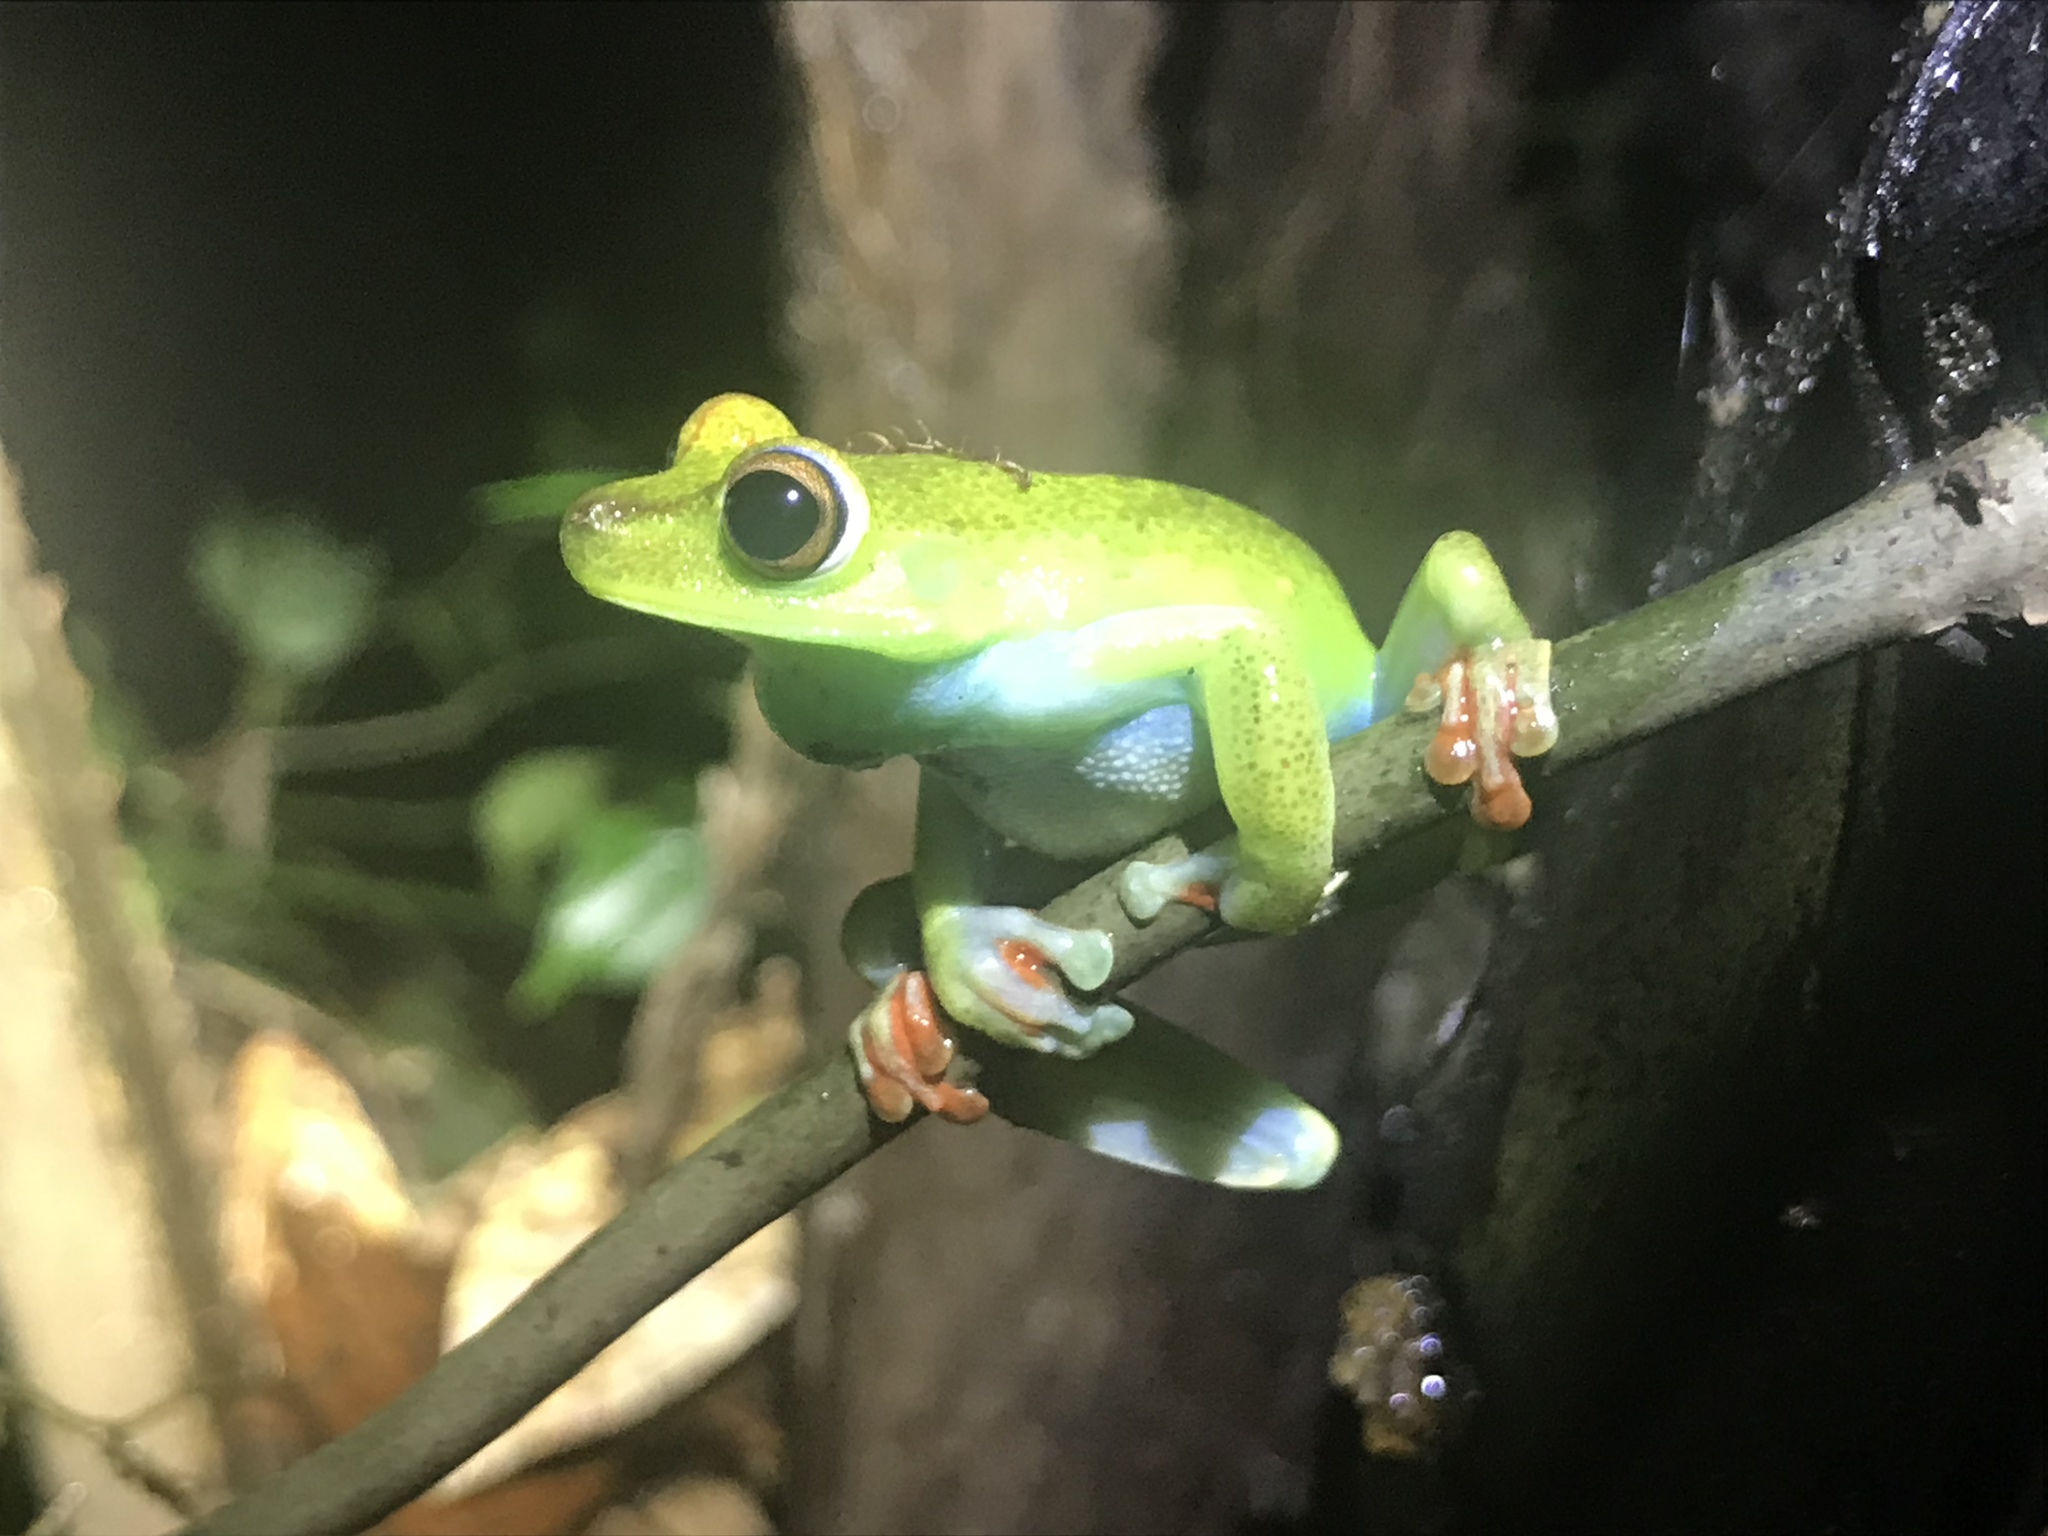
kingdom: Animalia
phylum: Chordata
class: Amphibia
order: Anura
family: Hylidae
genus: Boana
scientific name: Boana rufitela
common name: Canal zone treefrog
